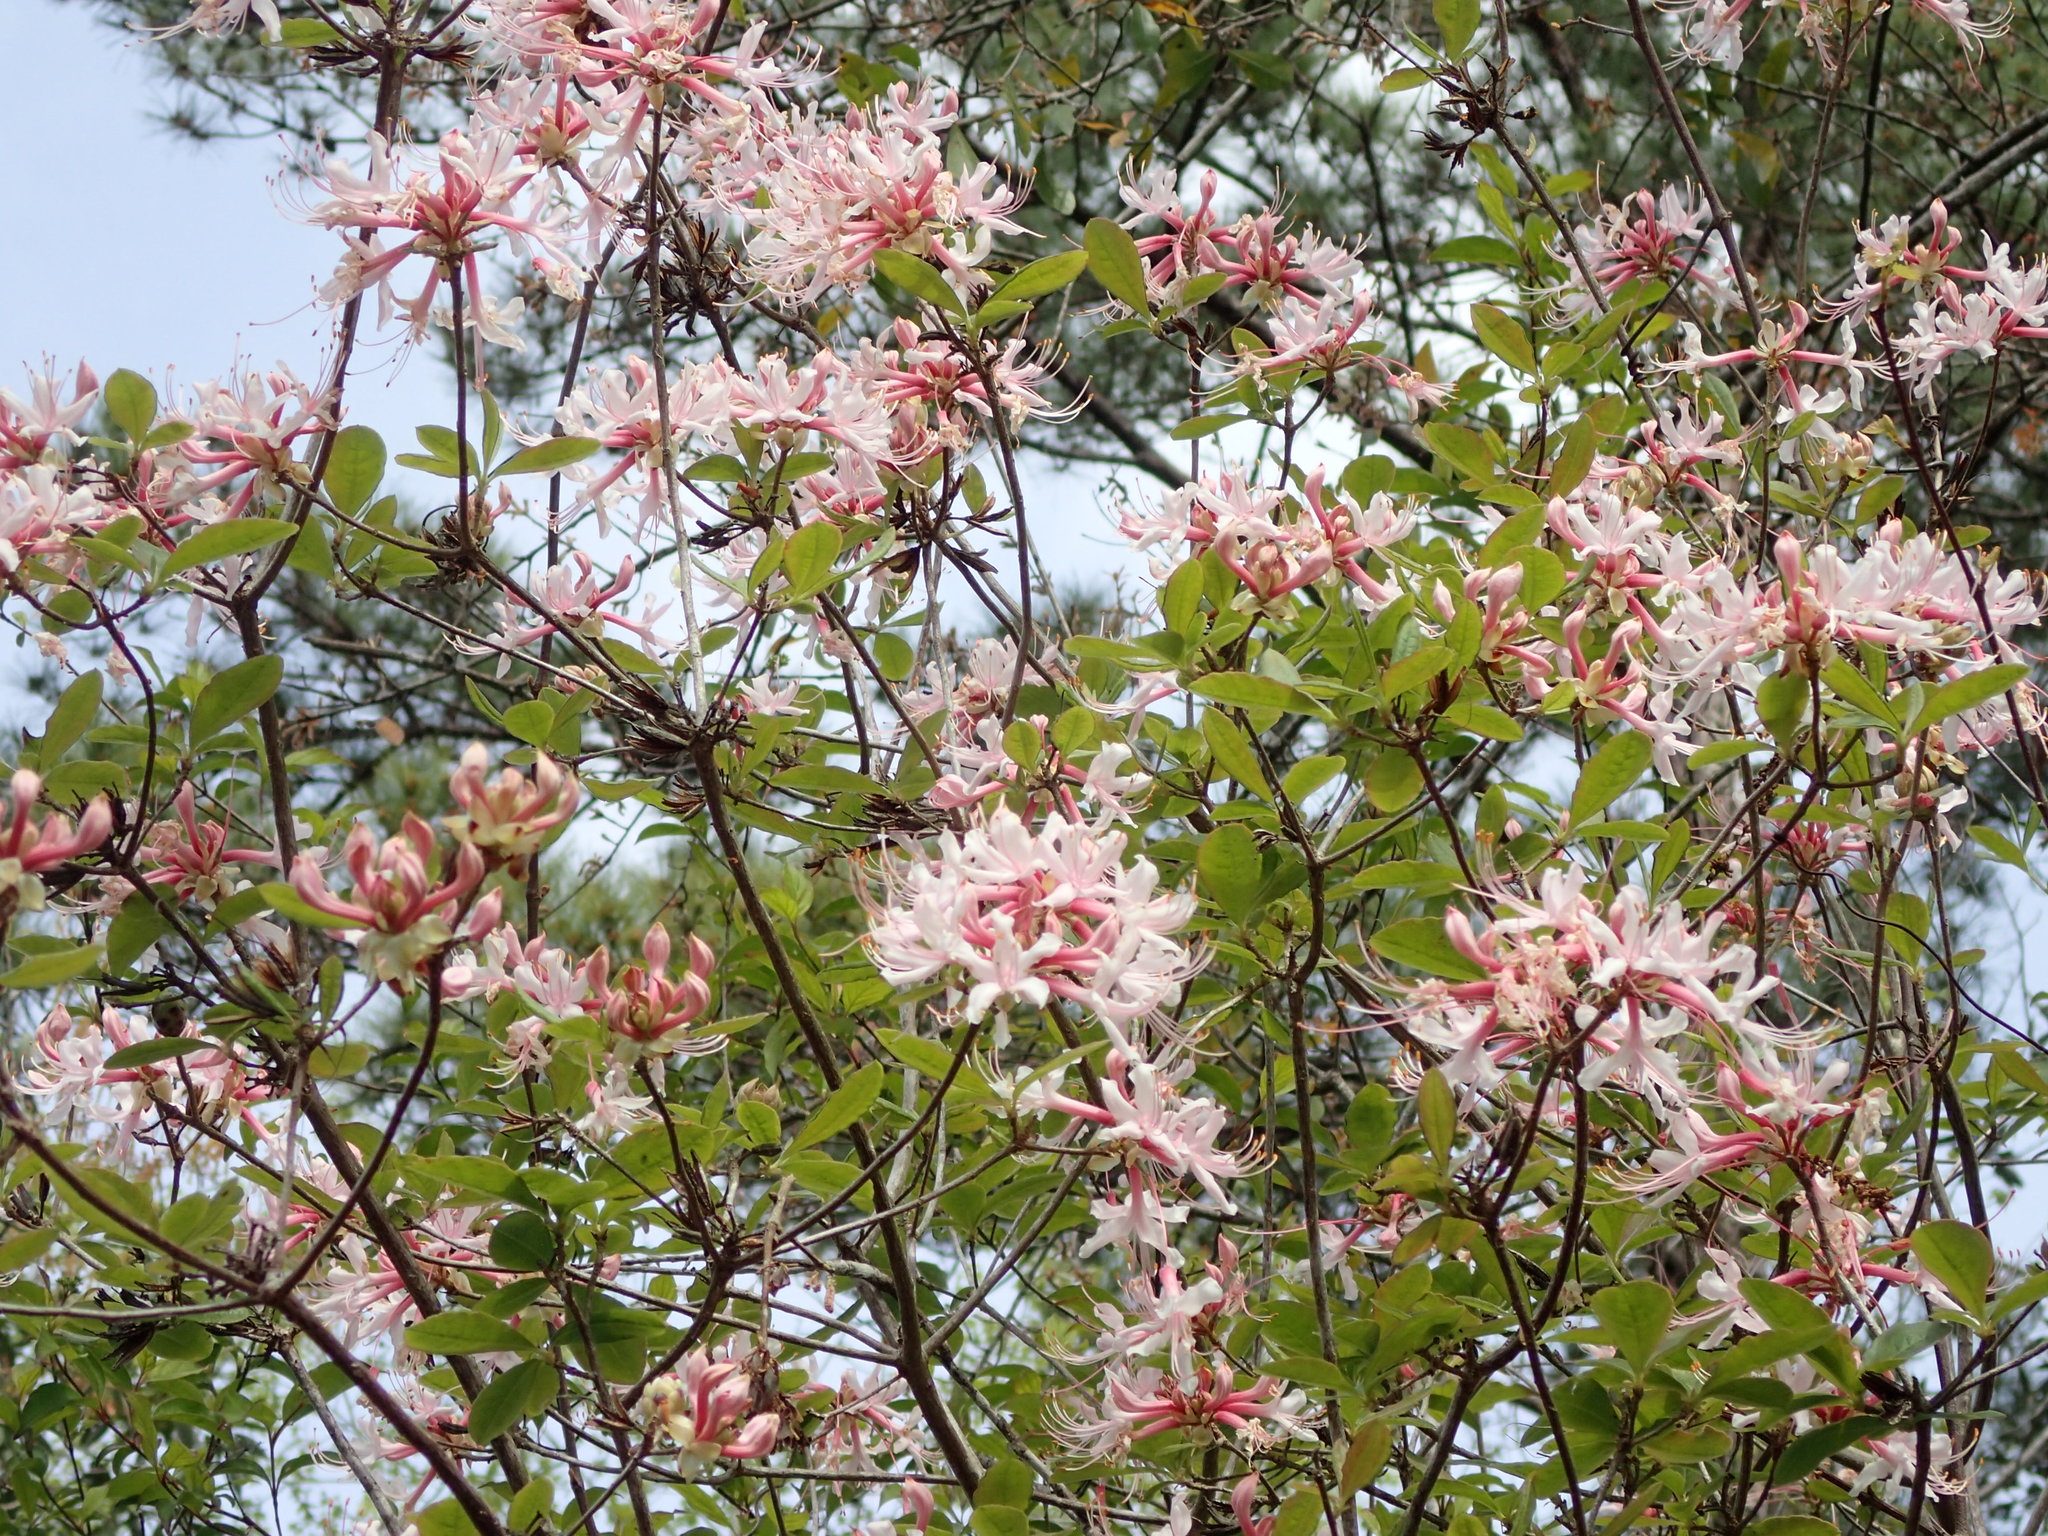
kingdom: Plantae
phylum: Tracheophyta
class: Magnoliopsida
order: Ericales
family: Ericaceae
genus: Rhododendron
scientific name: Rhododendron canescens
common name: Mountain azalea
